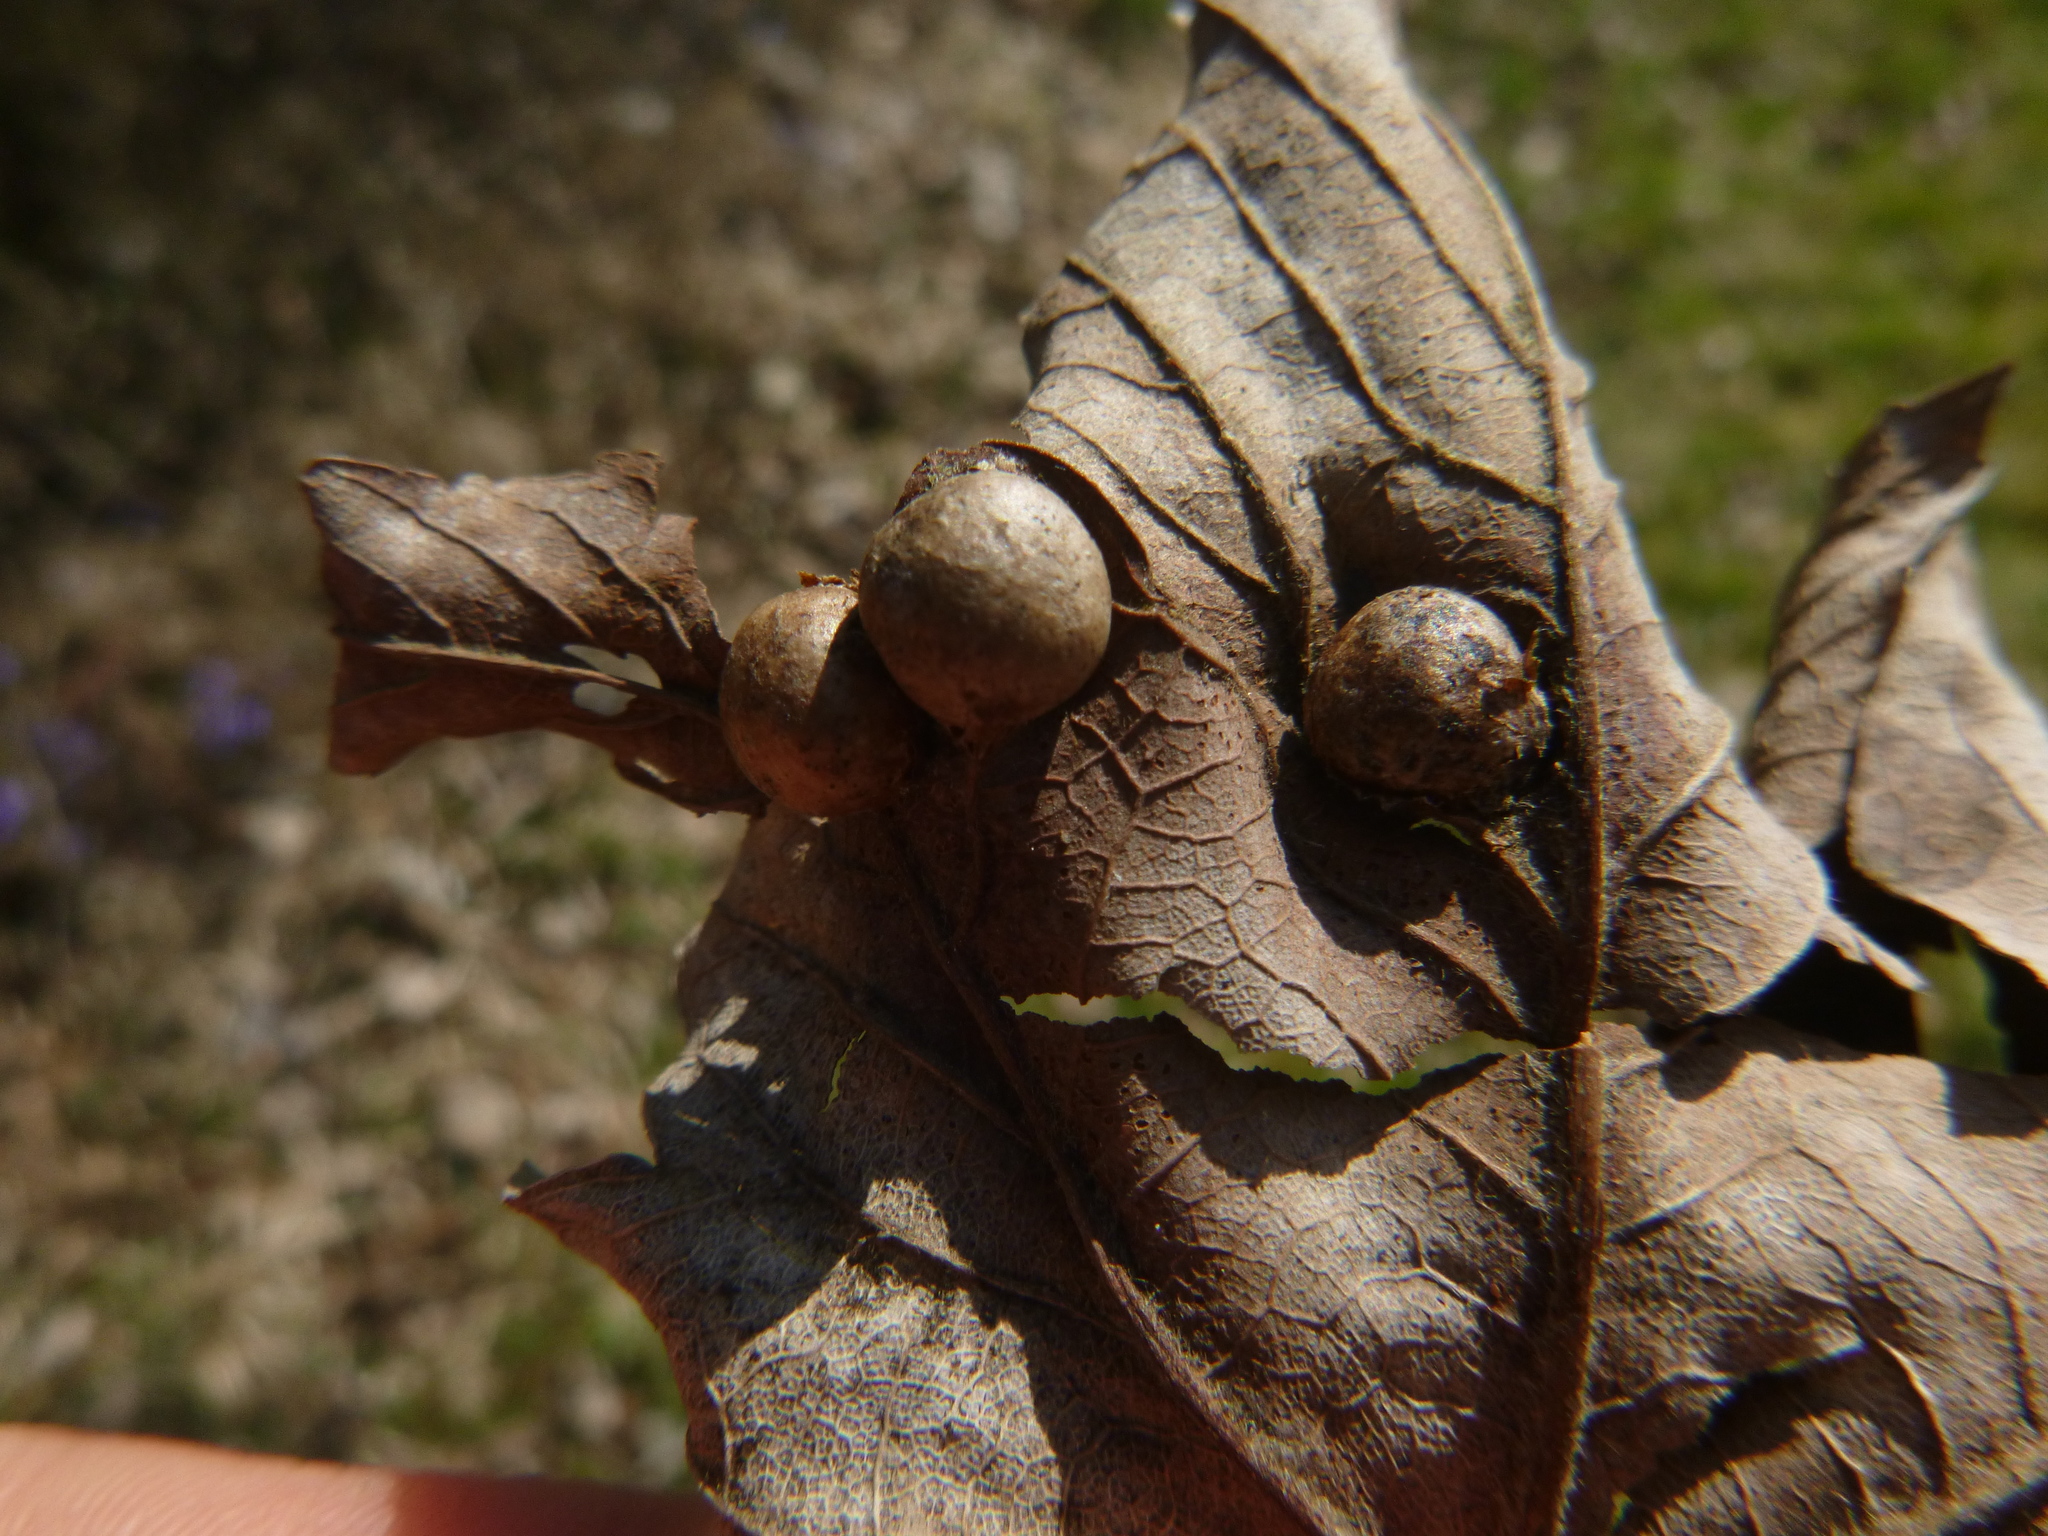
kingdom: Animalia
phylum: Arthropoda
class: Insecta
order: Hymenoptera
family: Cynipidae
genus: Pediaspis
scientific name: Pediaspis aceris
